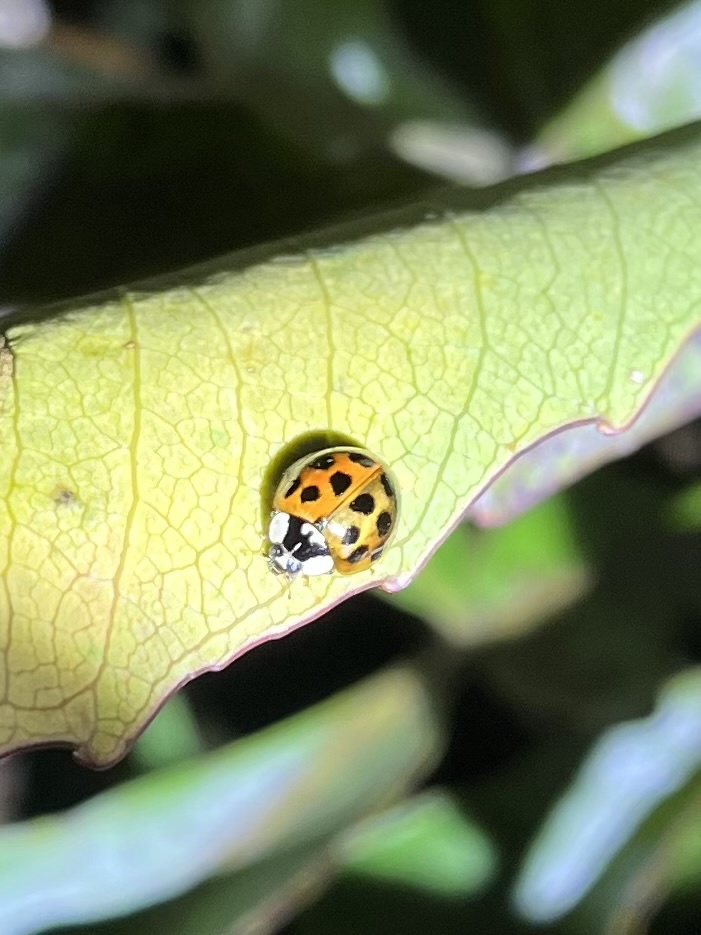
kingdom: Animalia
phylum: Arthropoda
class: Insecta
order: Coleoptera
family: Coccinellidae
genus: Harmonia
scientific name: Harmonia axyridis
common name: Harlequin ladybird
